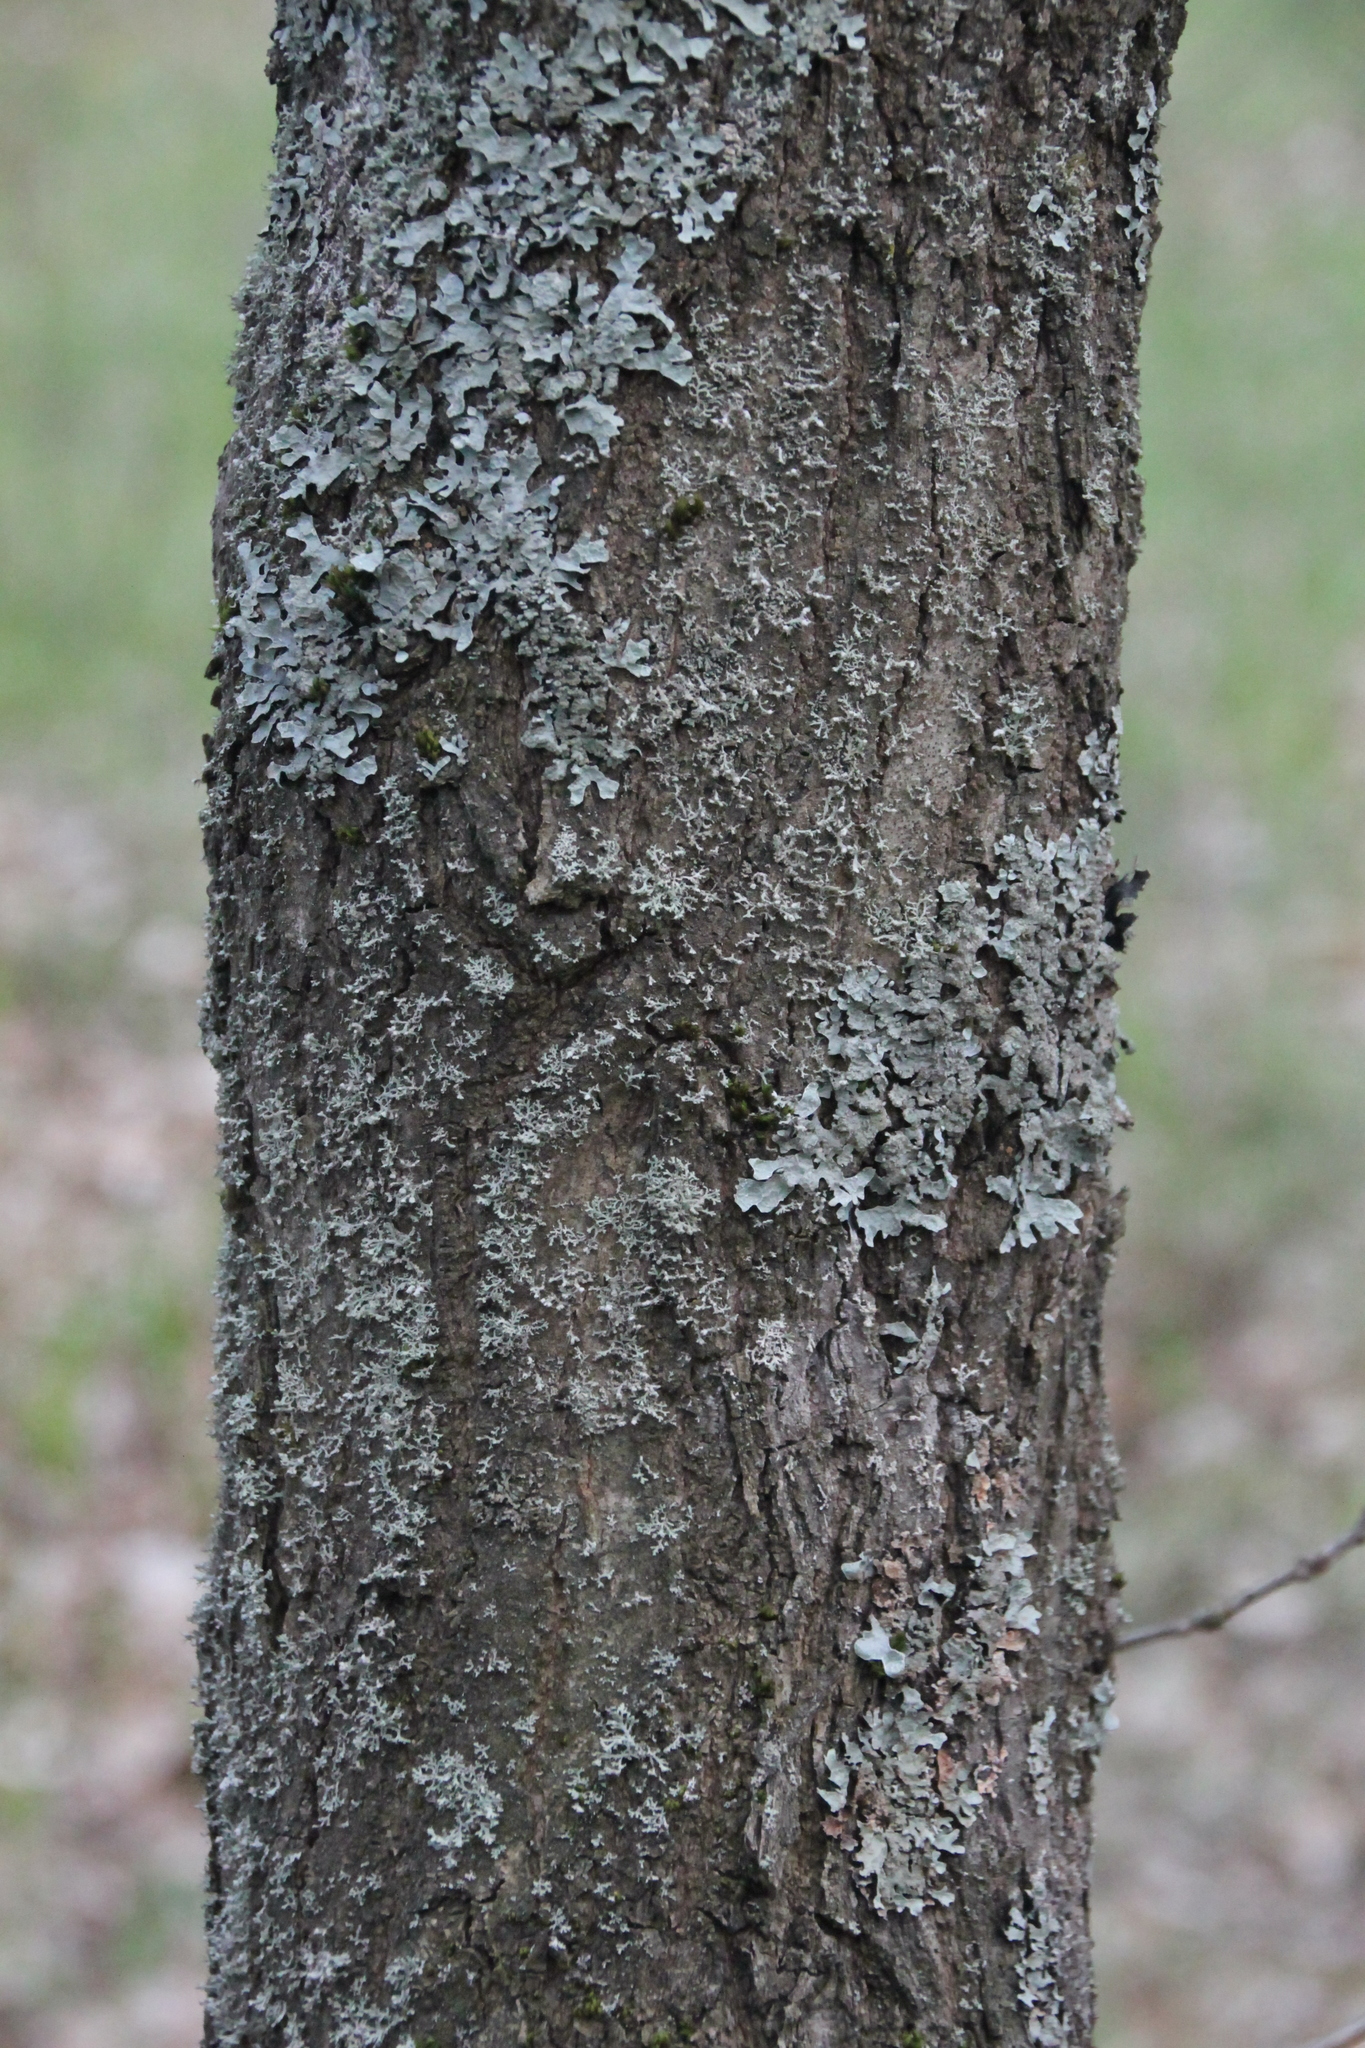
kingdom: Plantae
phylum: Tracheophyta
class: Magnoliopsida
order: Fagales
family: Fagaceae
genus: Quercus
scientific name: Quercus robur
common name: Pedunculate oak
